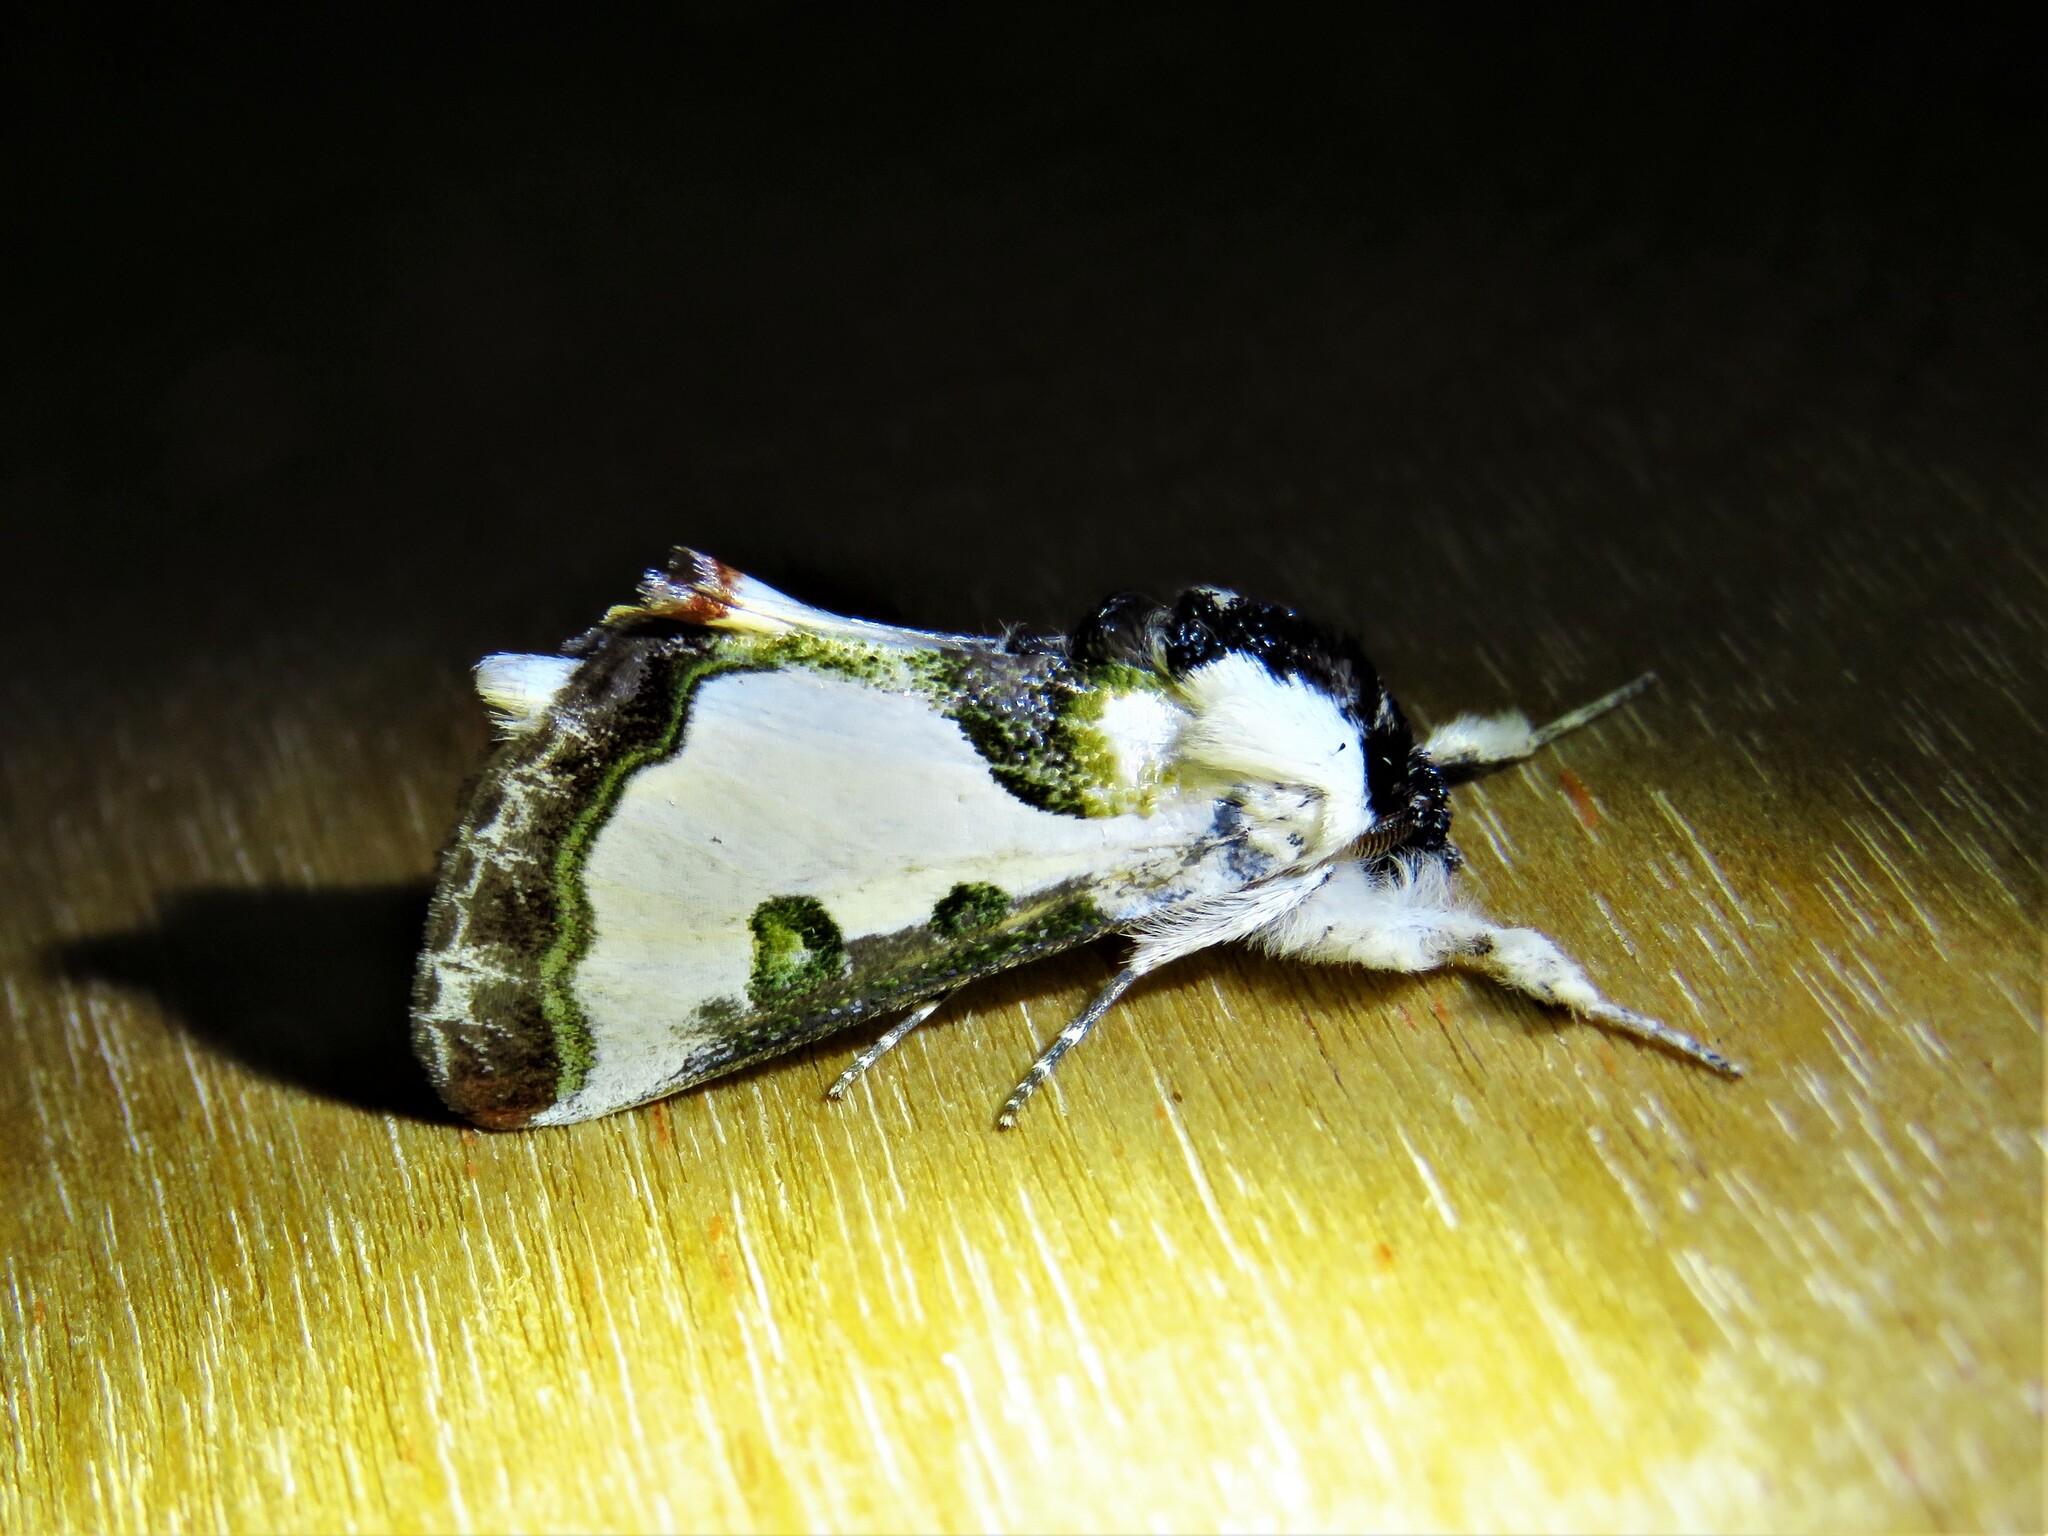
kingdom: Animalia
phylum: Arthropoda
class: Insecta
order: Lepidoptera
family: Noctuidae
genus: Xerociris
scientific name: Xerociris wilsonii
